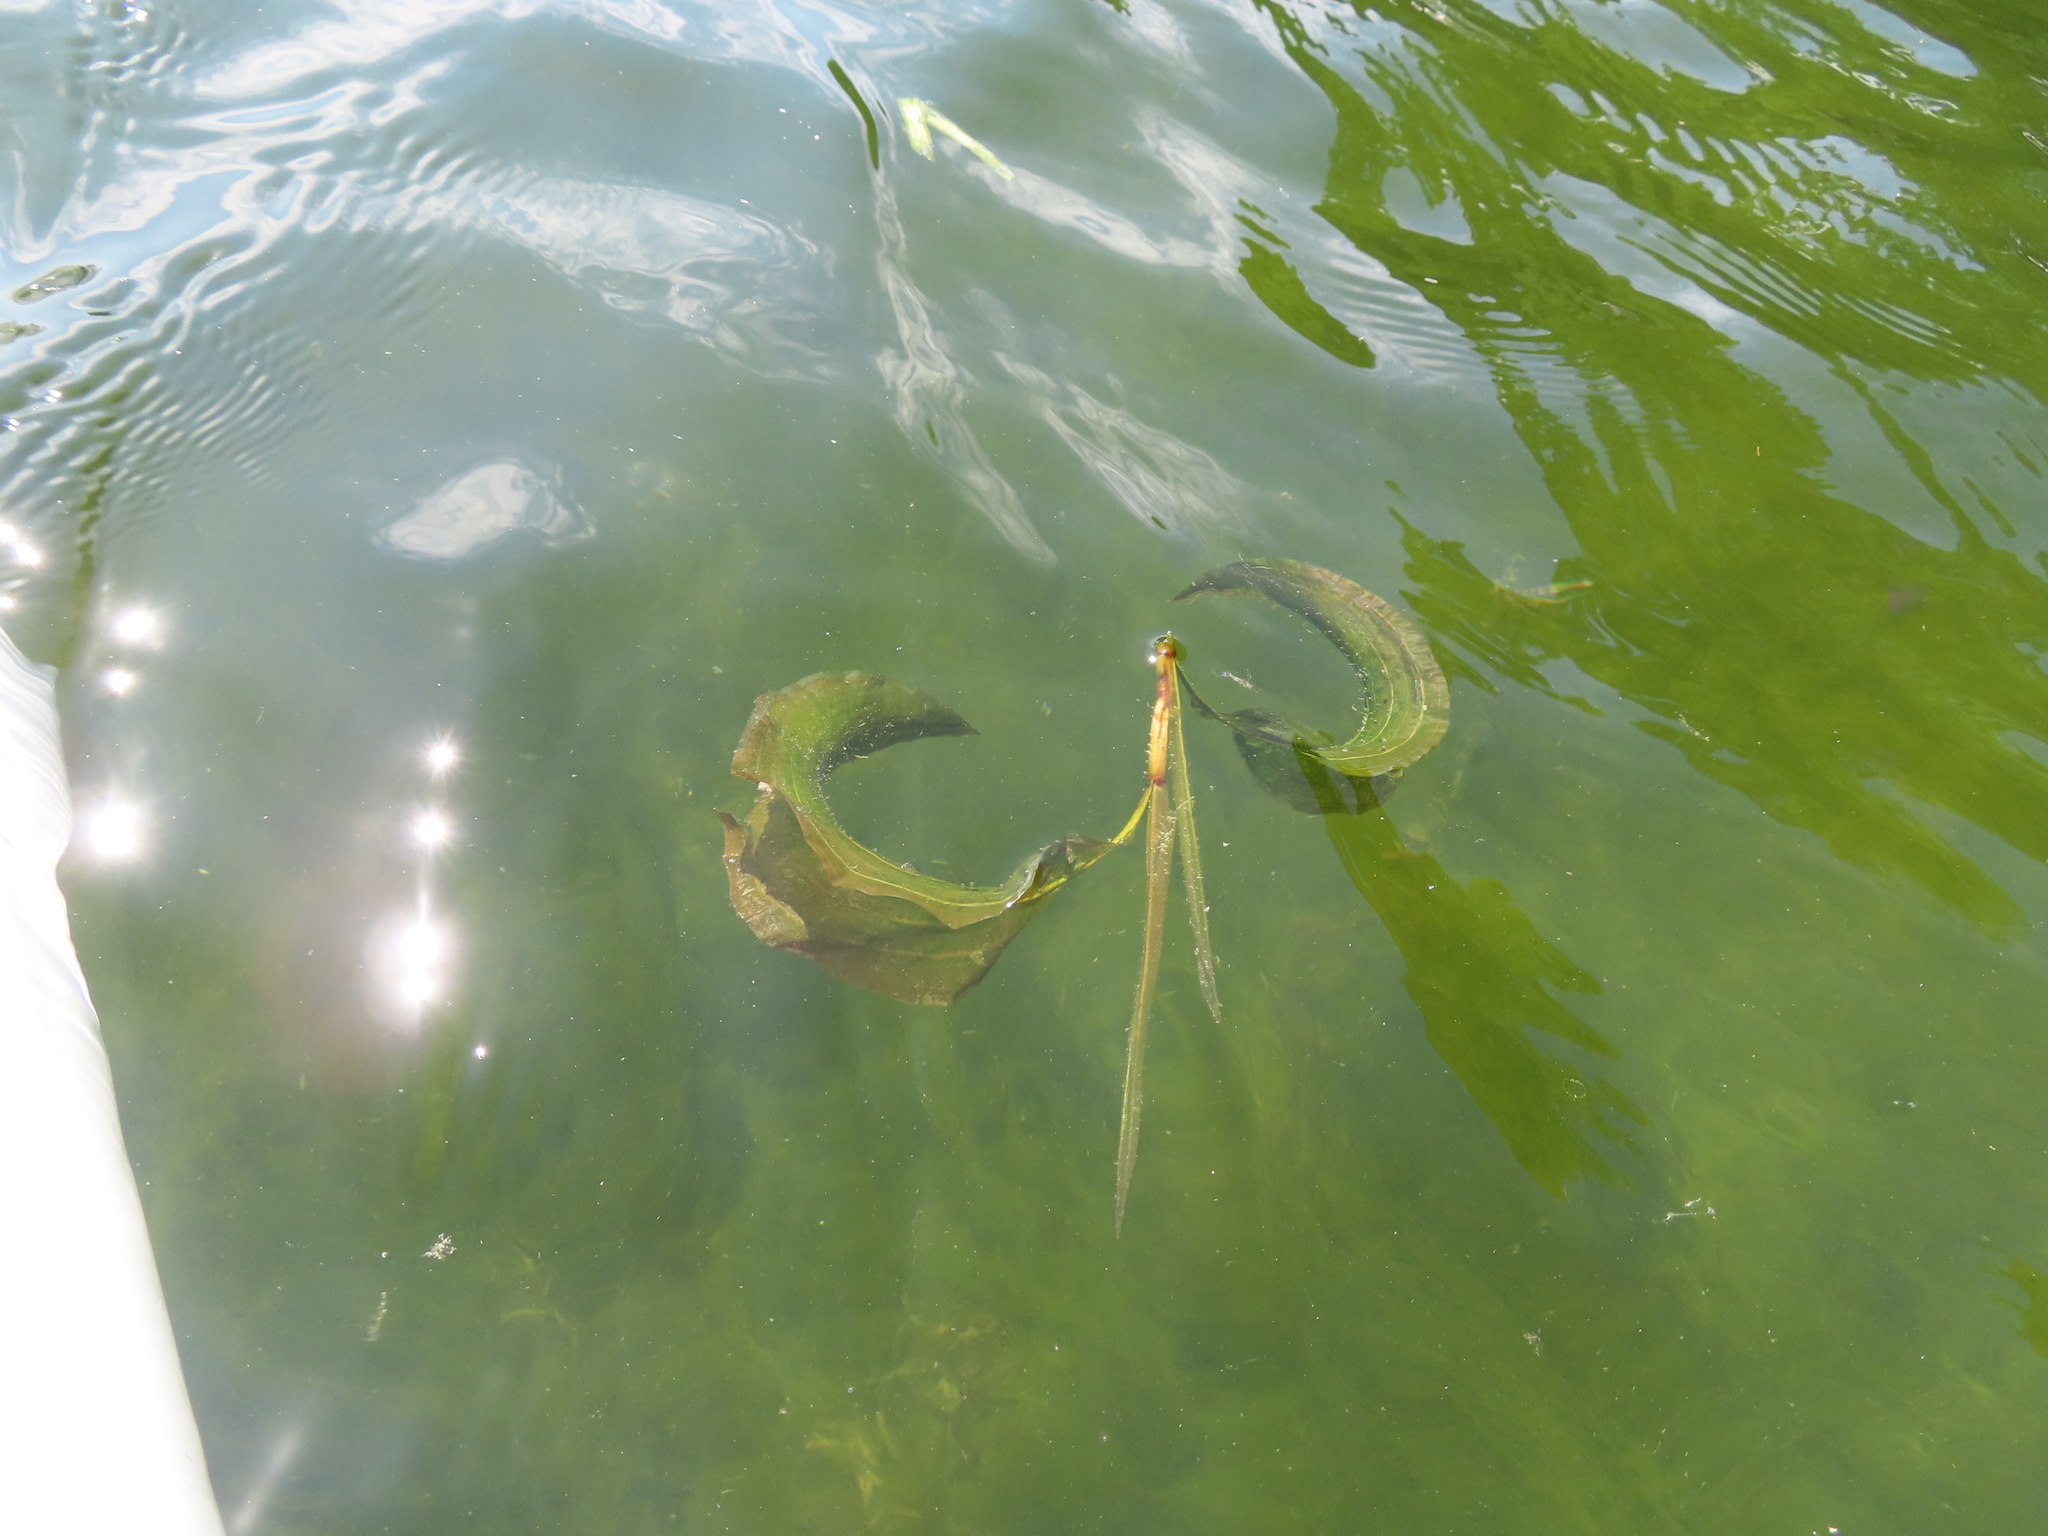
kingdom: Plantae
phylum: Tracheophyta
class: Liliopsida
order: Alismatales
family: Potamogetonaceae
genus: Potamogeton
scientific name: Potamogeton amplifolius
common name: Broad-leaved pondweed
